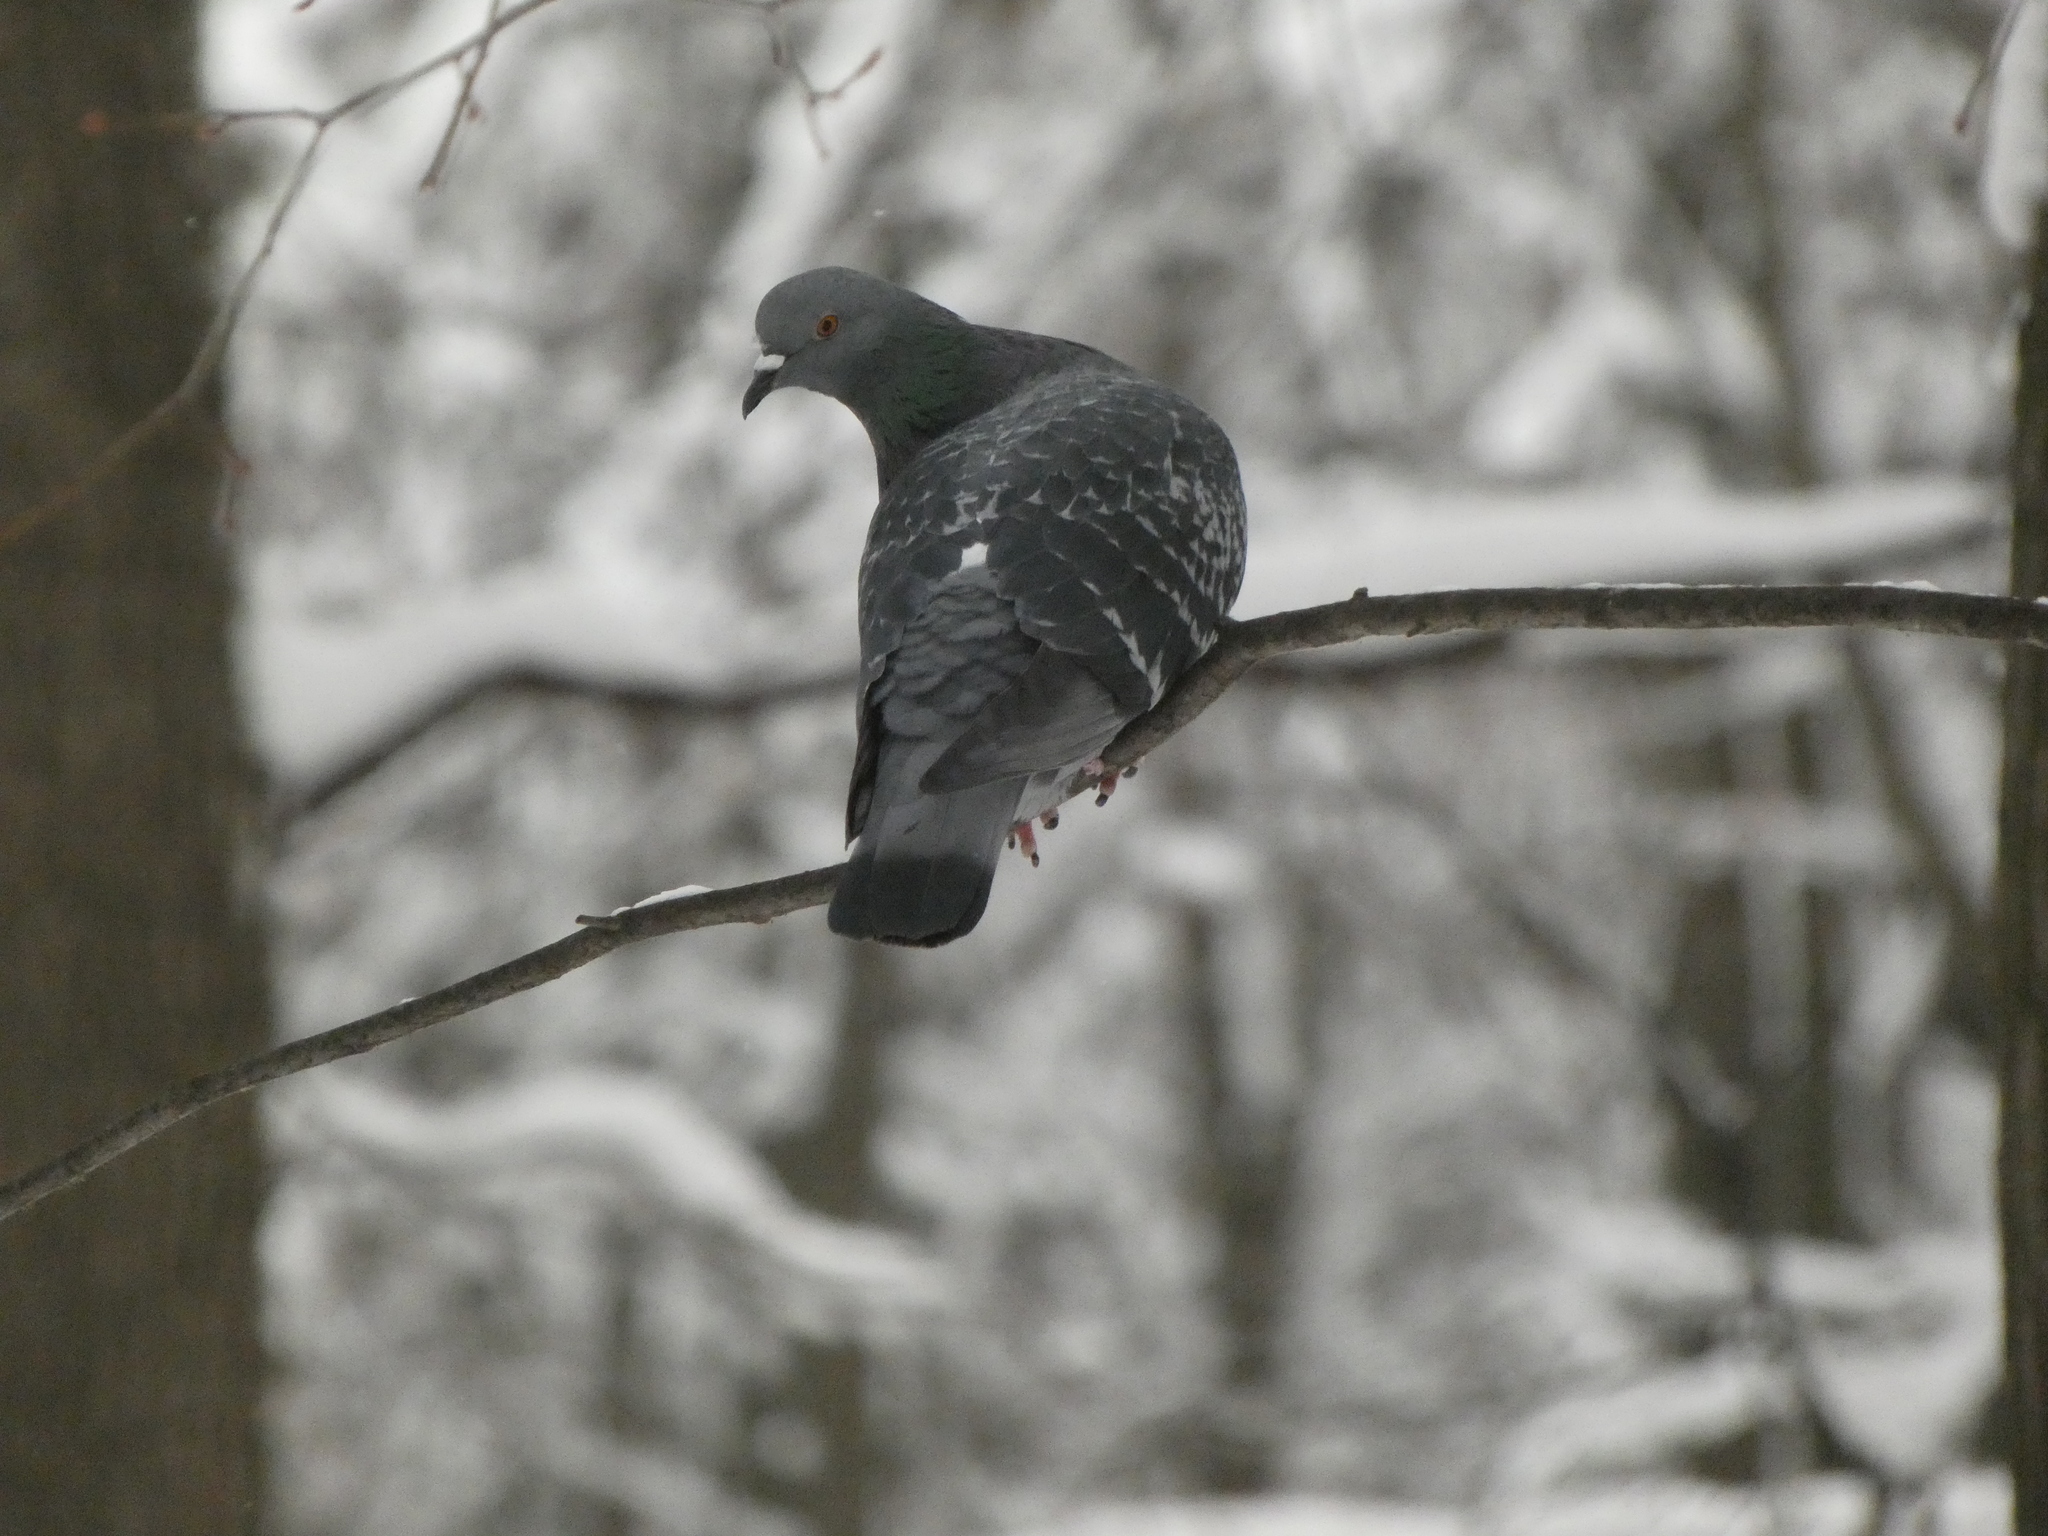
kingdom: Animalia
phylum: Chordata
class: Aves
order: Columbiformes
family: Columbidae
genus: Columba
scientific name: Columba livia
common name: Rock pigeon
